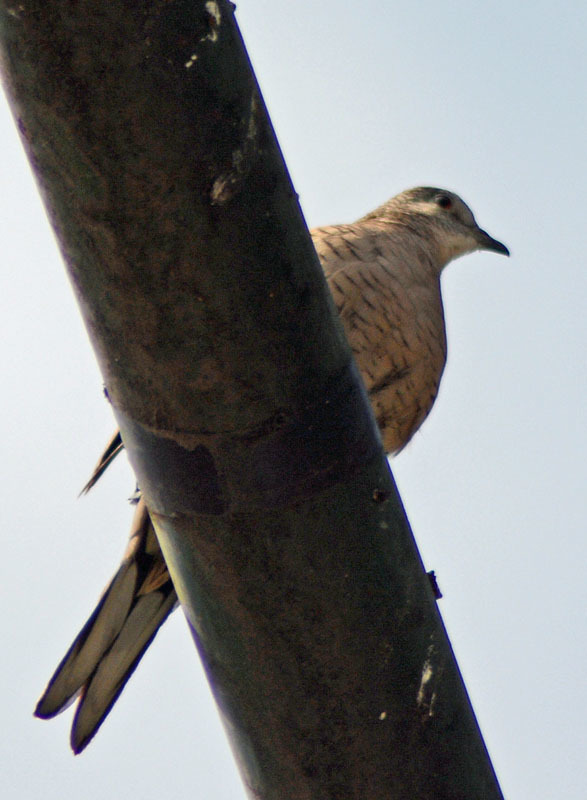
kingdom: Animalia
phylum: Chordata
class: Aves
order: Columbiformes
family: Columbidae
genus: Columbina
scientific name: Columbina inca
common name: Inca dove
